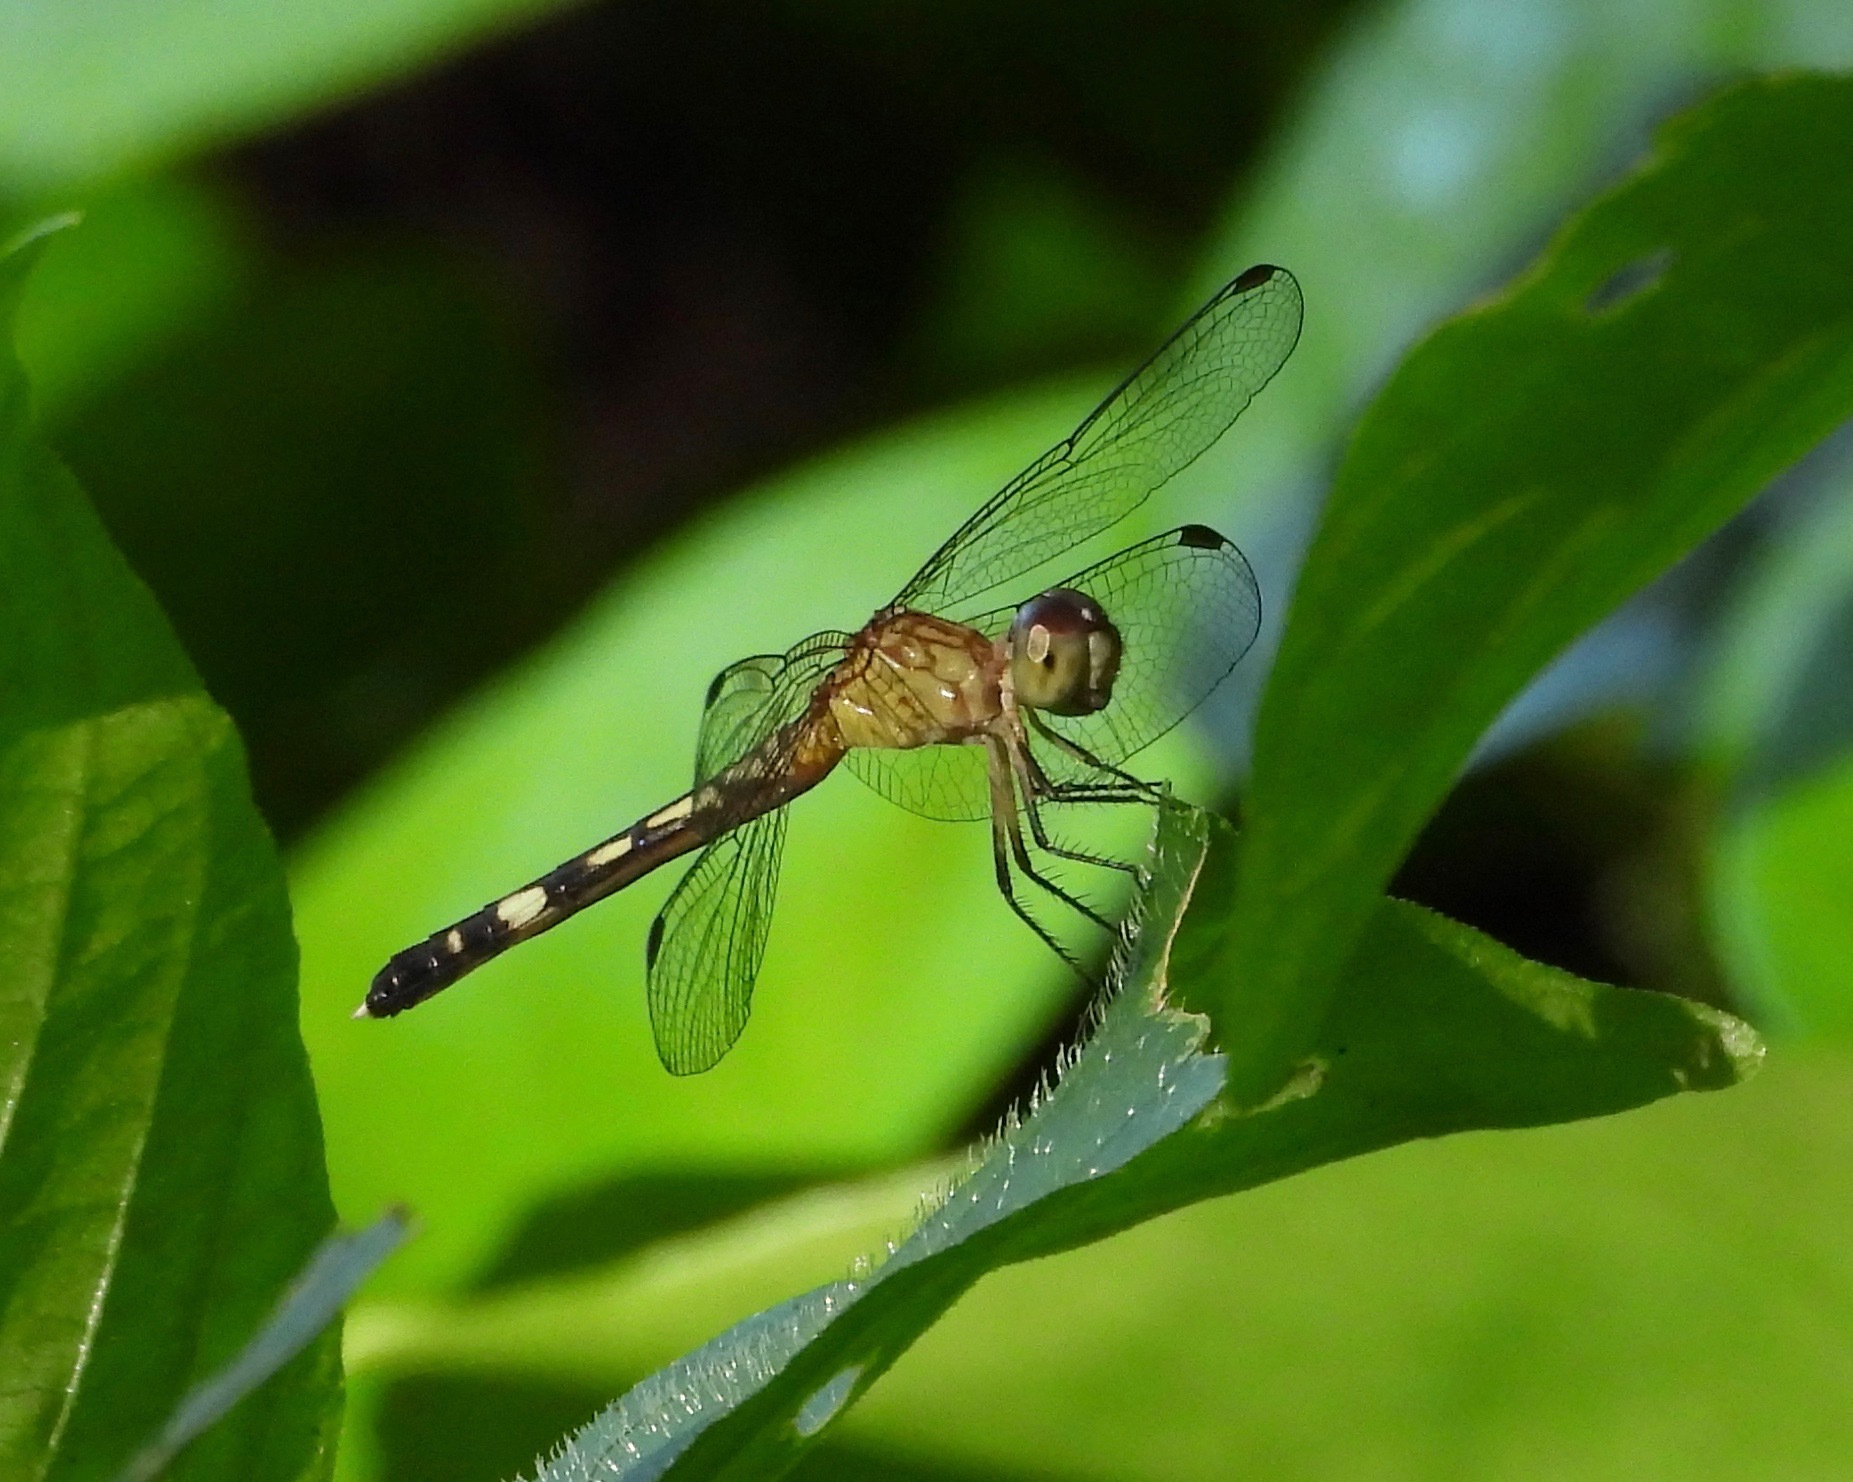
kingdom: Animalia
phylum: Arthropoda
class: Insecta
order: Odonata
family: Libellulidae
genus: Anatya
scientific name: Anatya guttata
